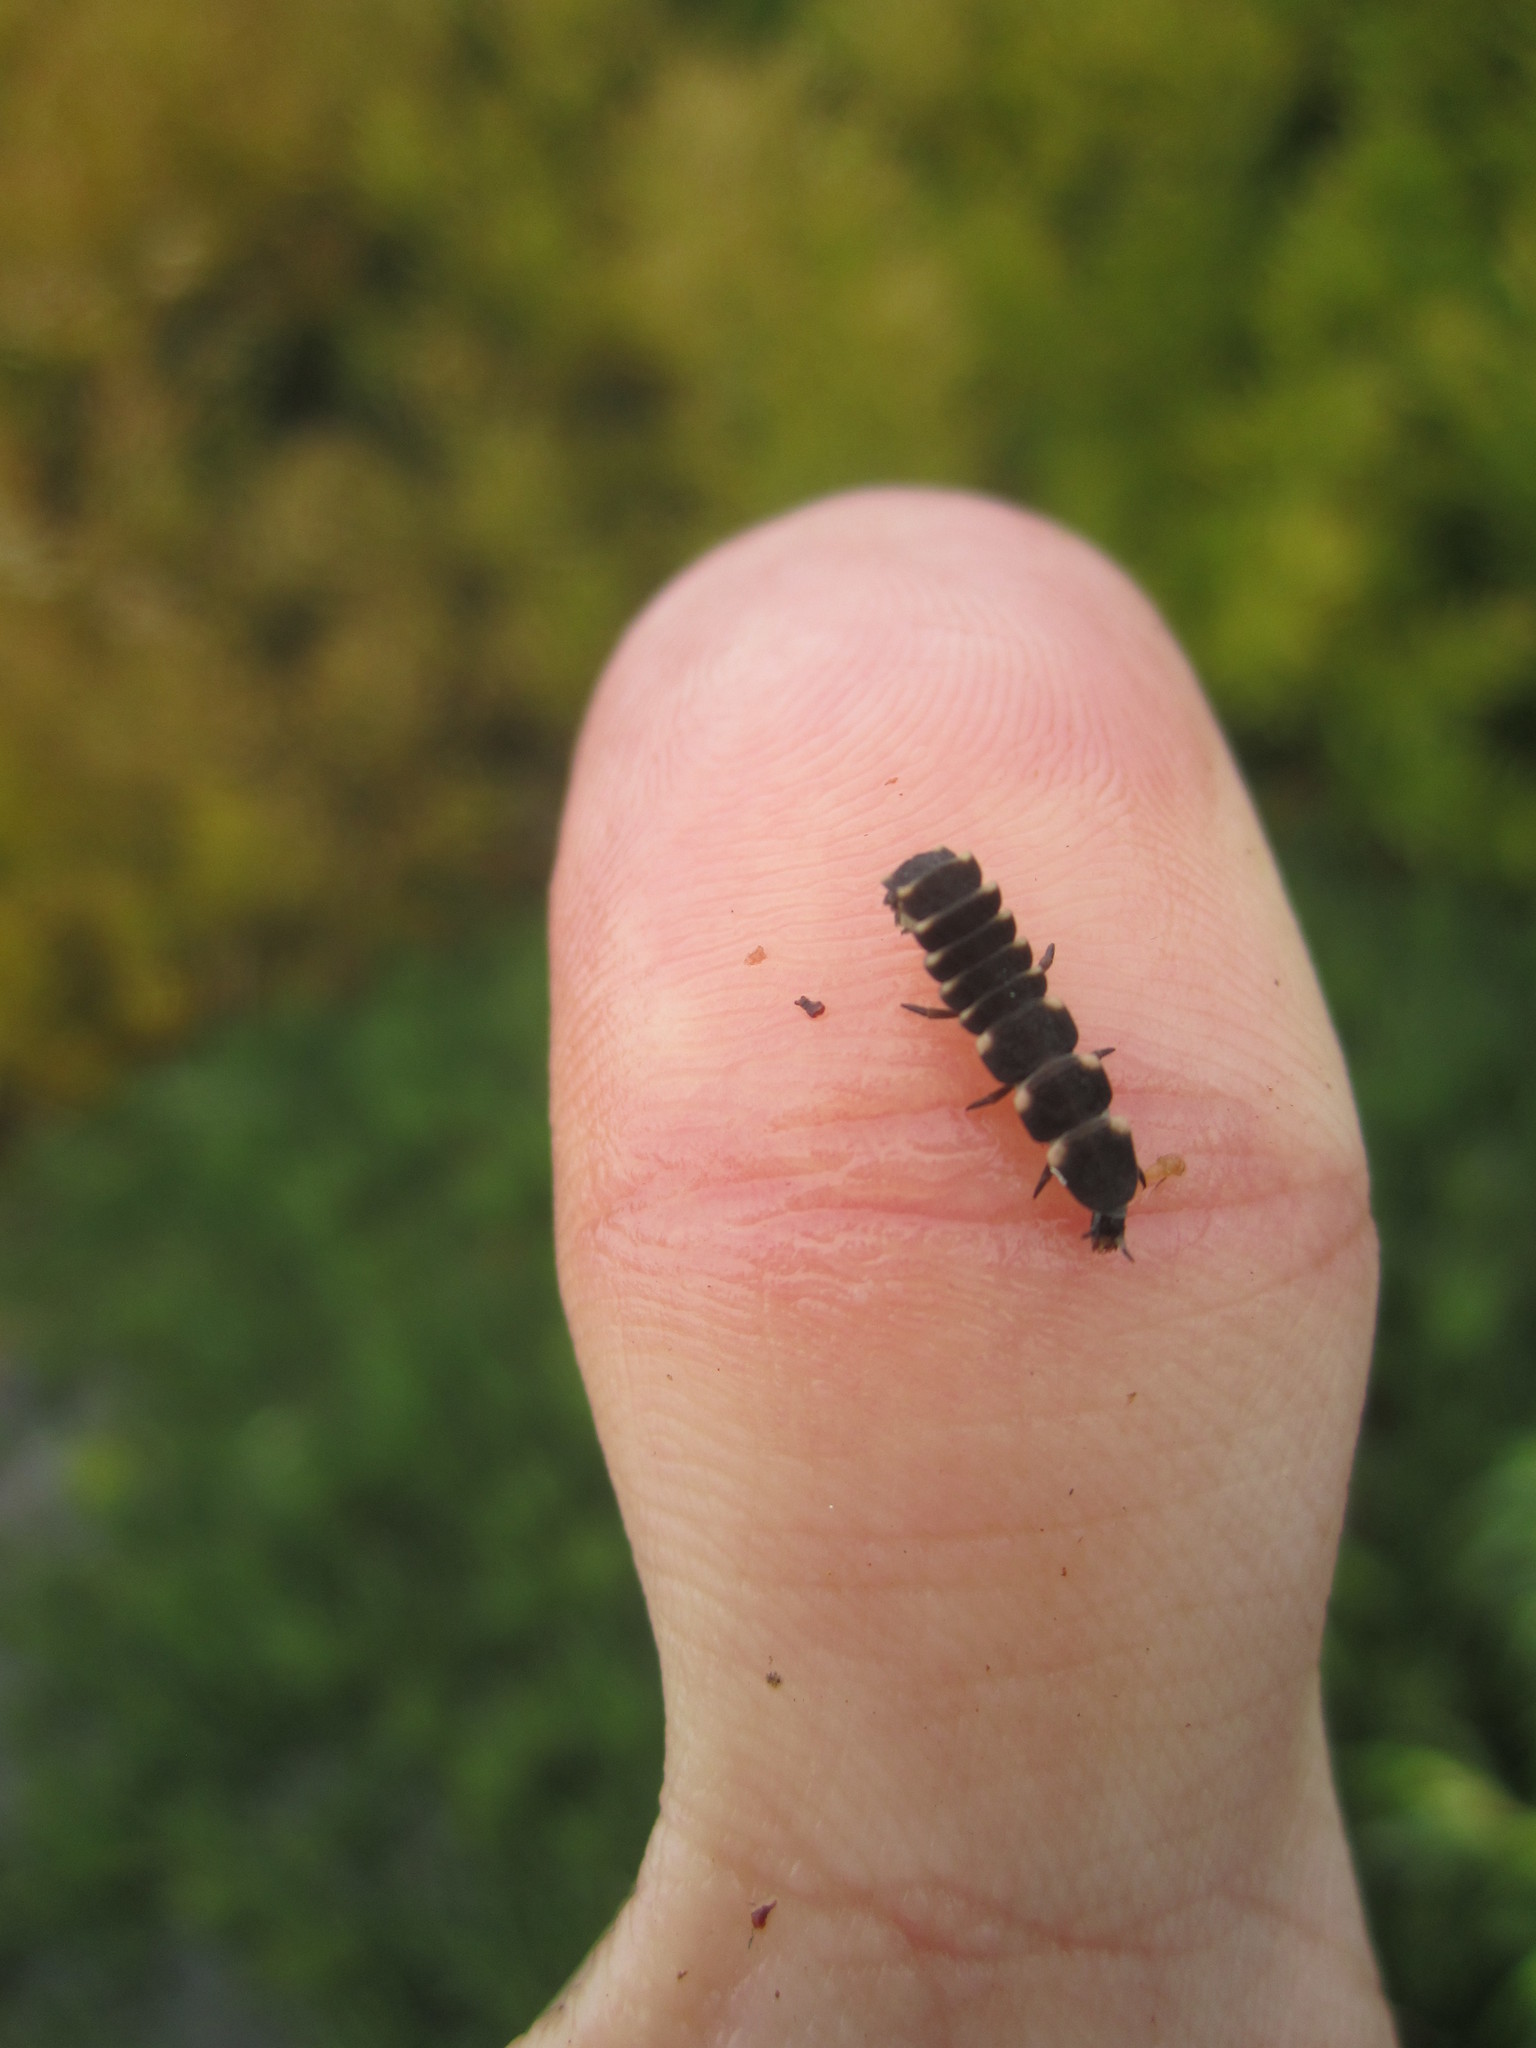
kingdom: Animalia
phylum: Arthropoda
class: Insecta
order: Coleoptera
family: Lampyridae
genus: Lampyris
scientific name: Lampyris
